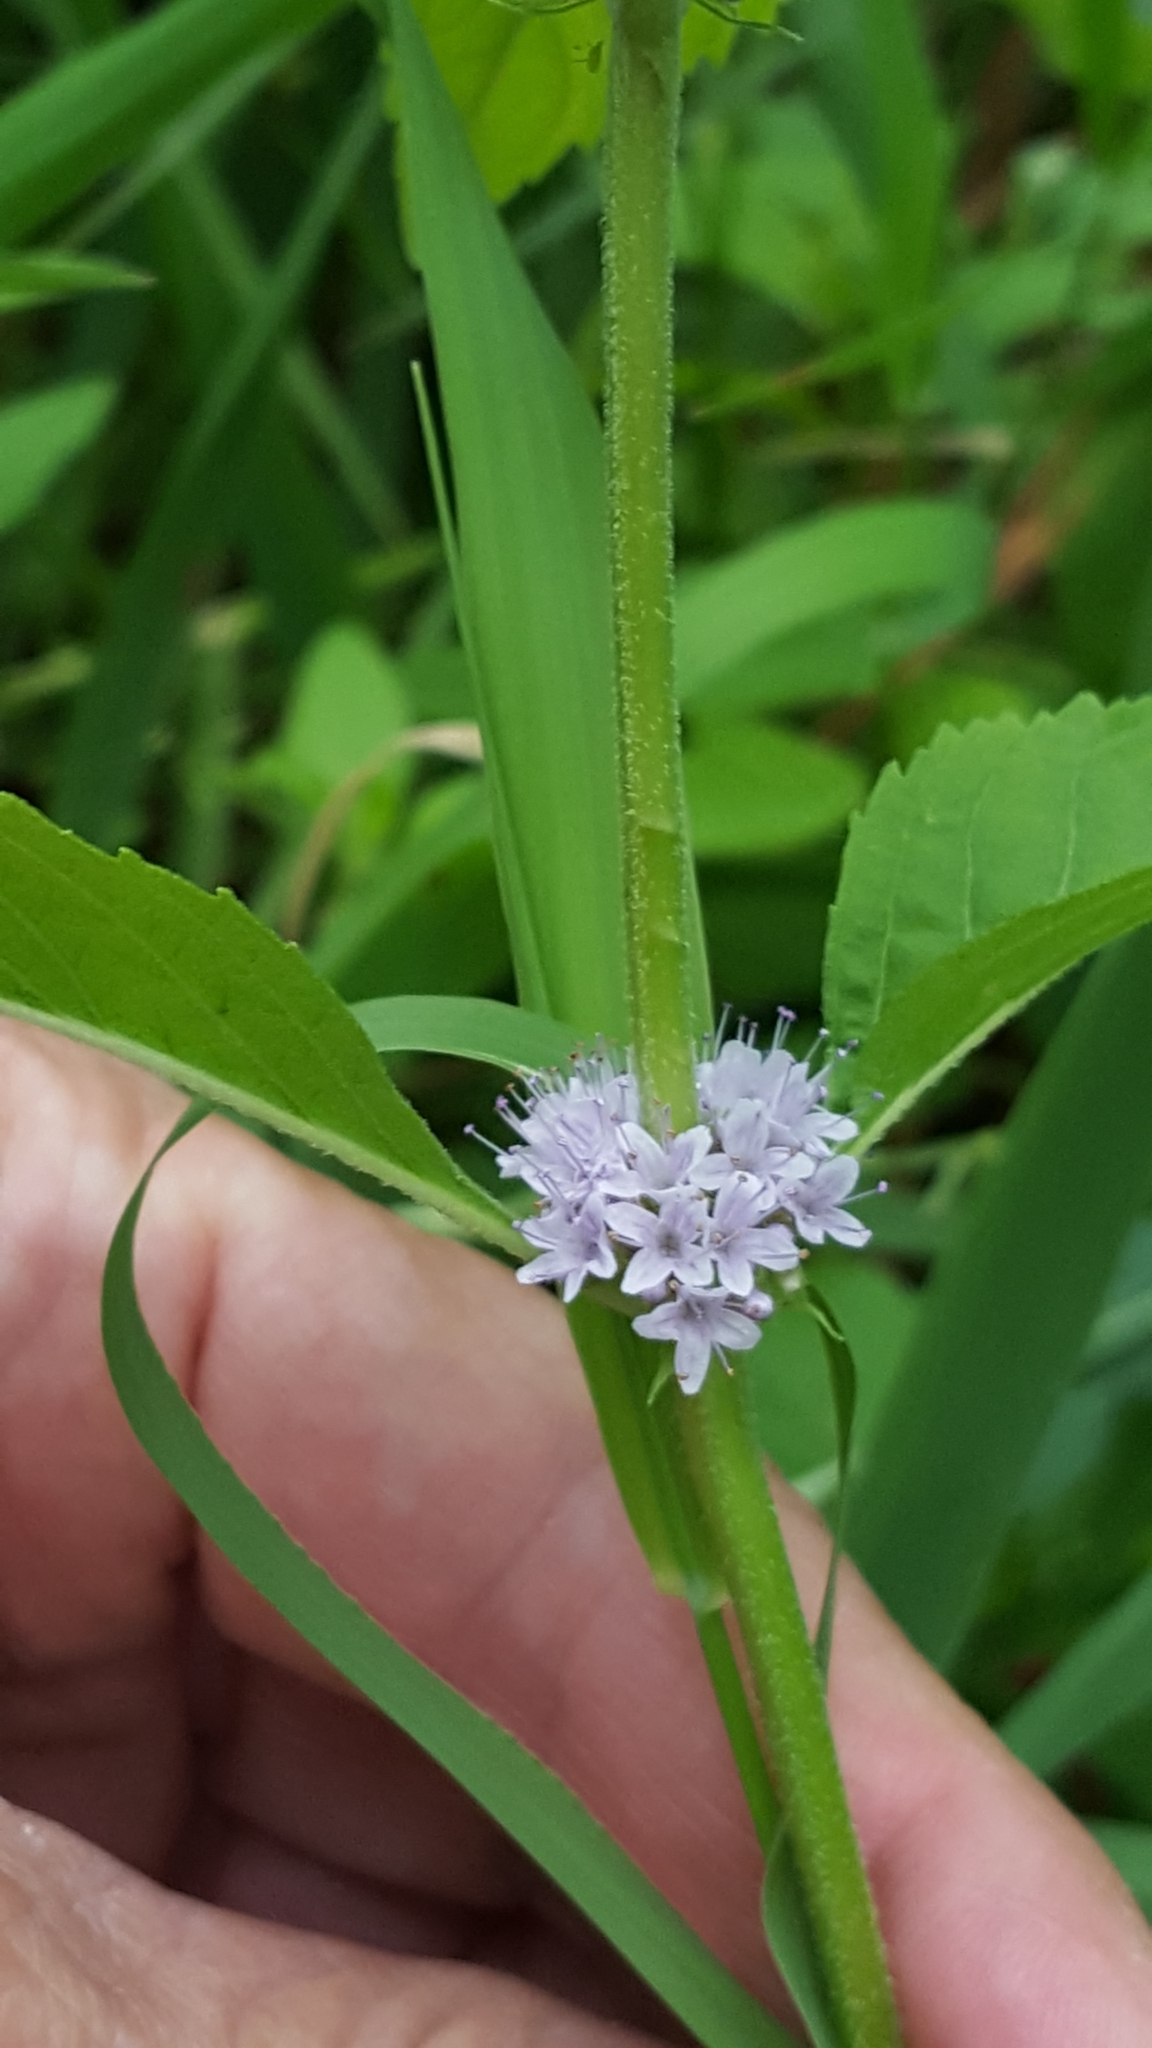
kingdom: Plantae
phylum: Tracheophyta
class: Magnoliopsida
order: Lamiales
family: Lamiaceae
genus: Mentha
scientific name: Mentha arvensis
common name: Corn mint
